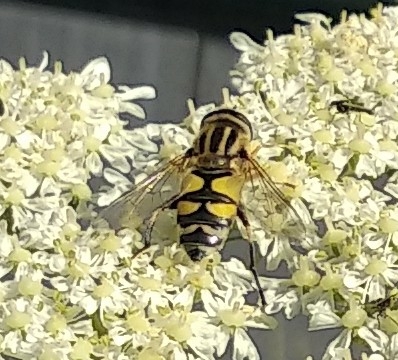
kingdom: Animalia
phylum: Arthropoda
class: Insecta
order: Diptera
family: Syrphidae
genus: Helophilus
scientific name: Helophilus trivittatus
